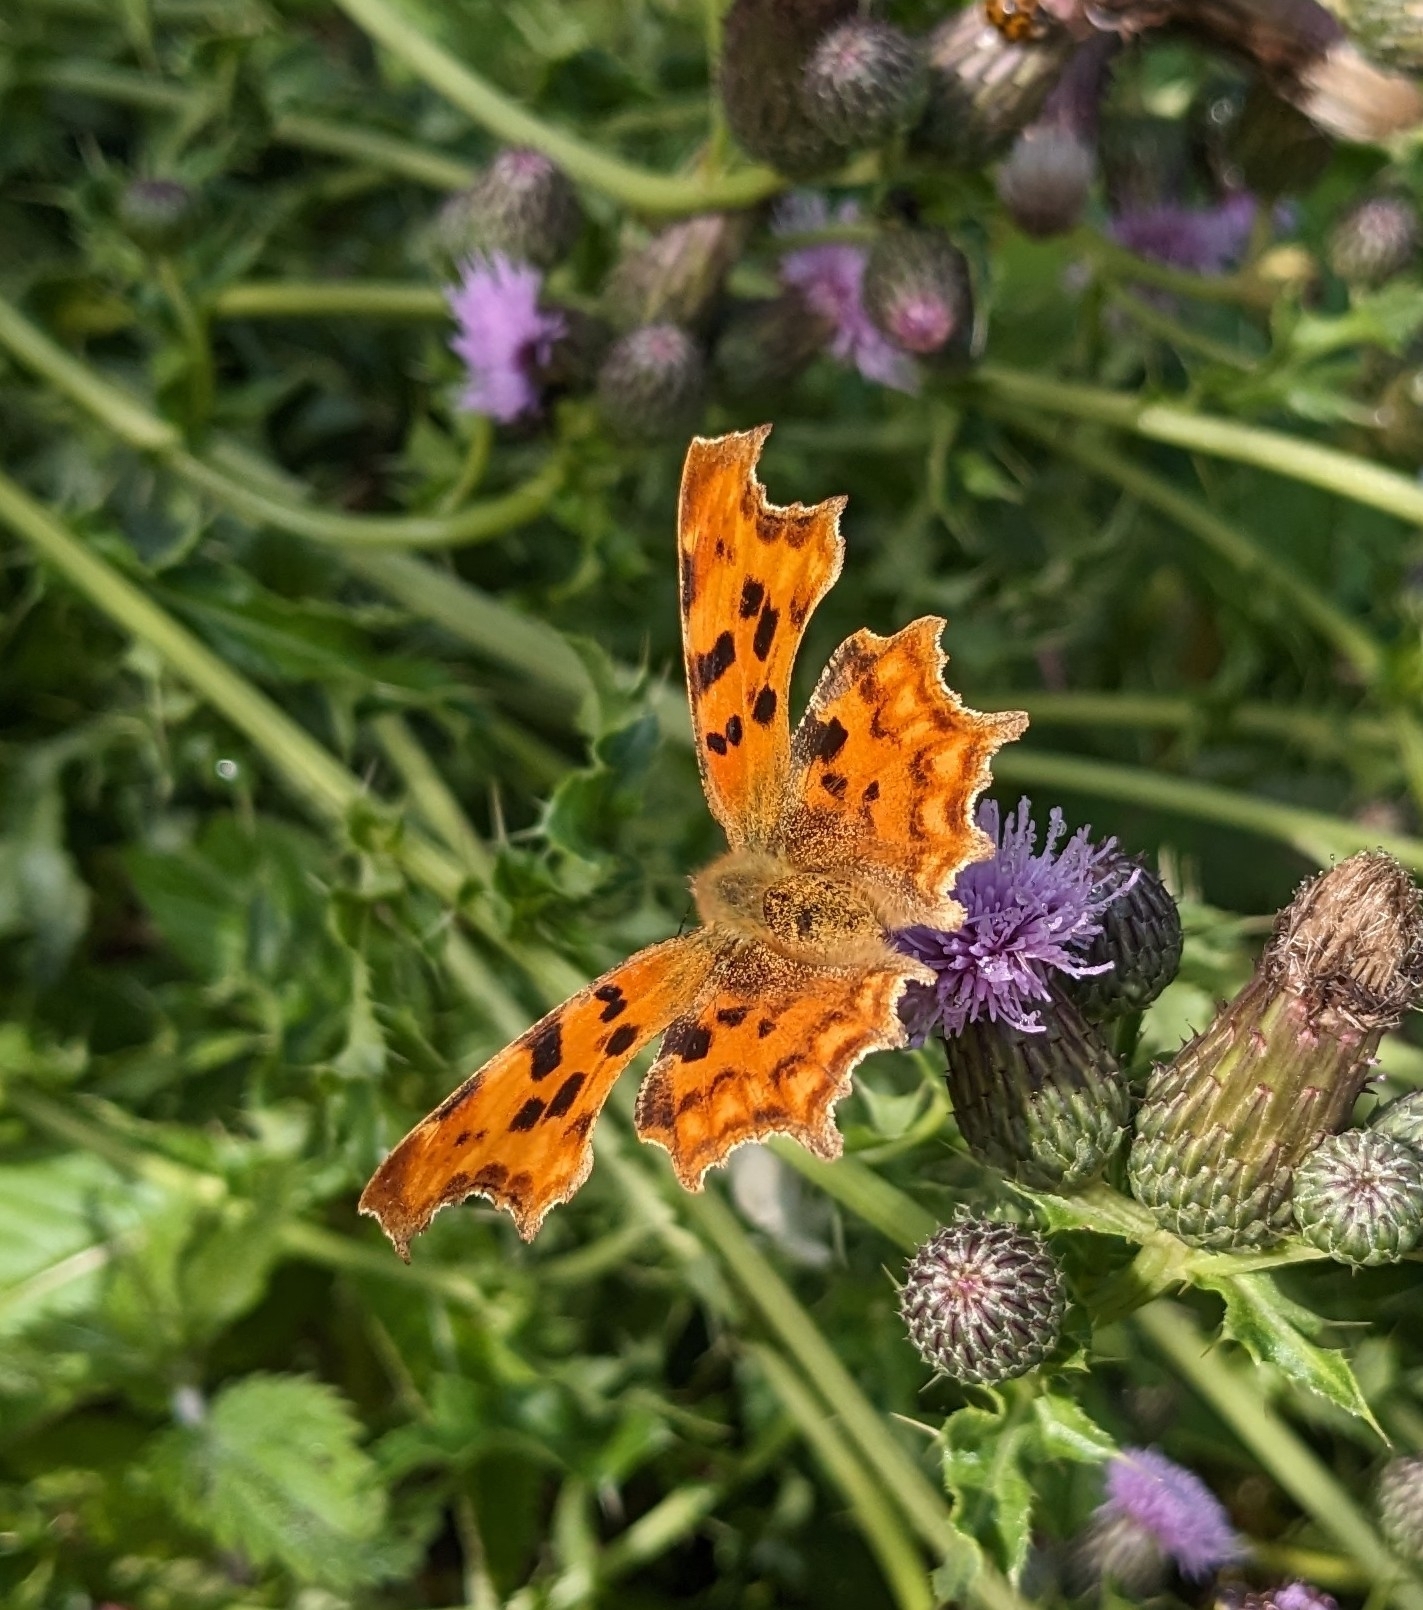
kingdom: Animalia
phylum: Arthropoda
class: Insecta
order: Lepidoptera
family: Nymphalidae
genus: Polygonia
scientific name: Polygonia c-album
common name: Comma
